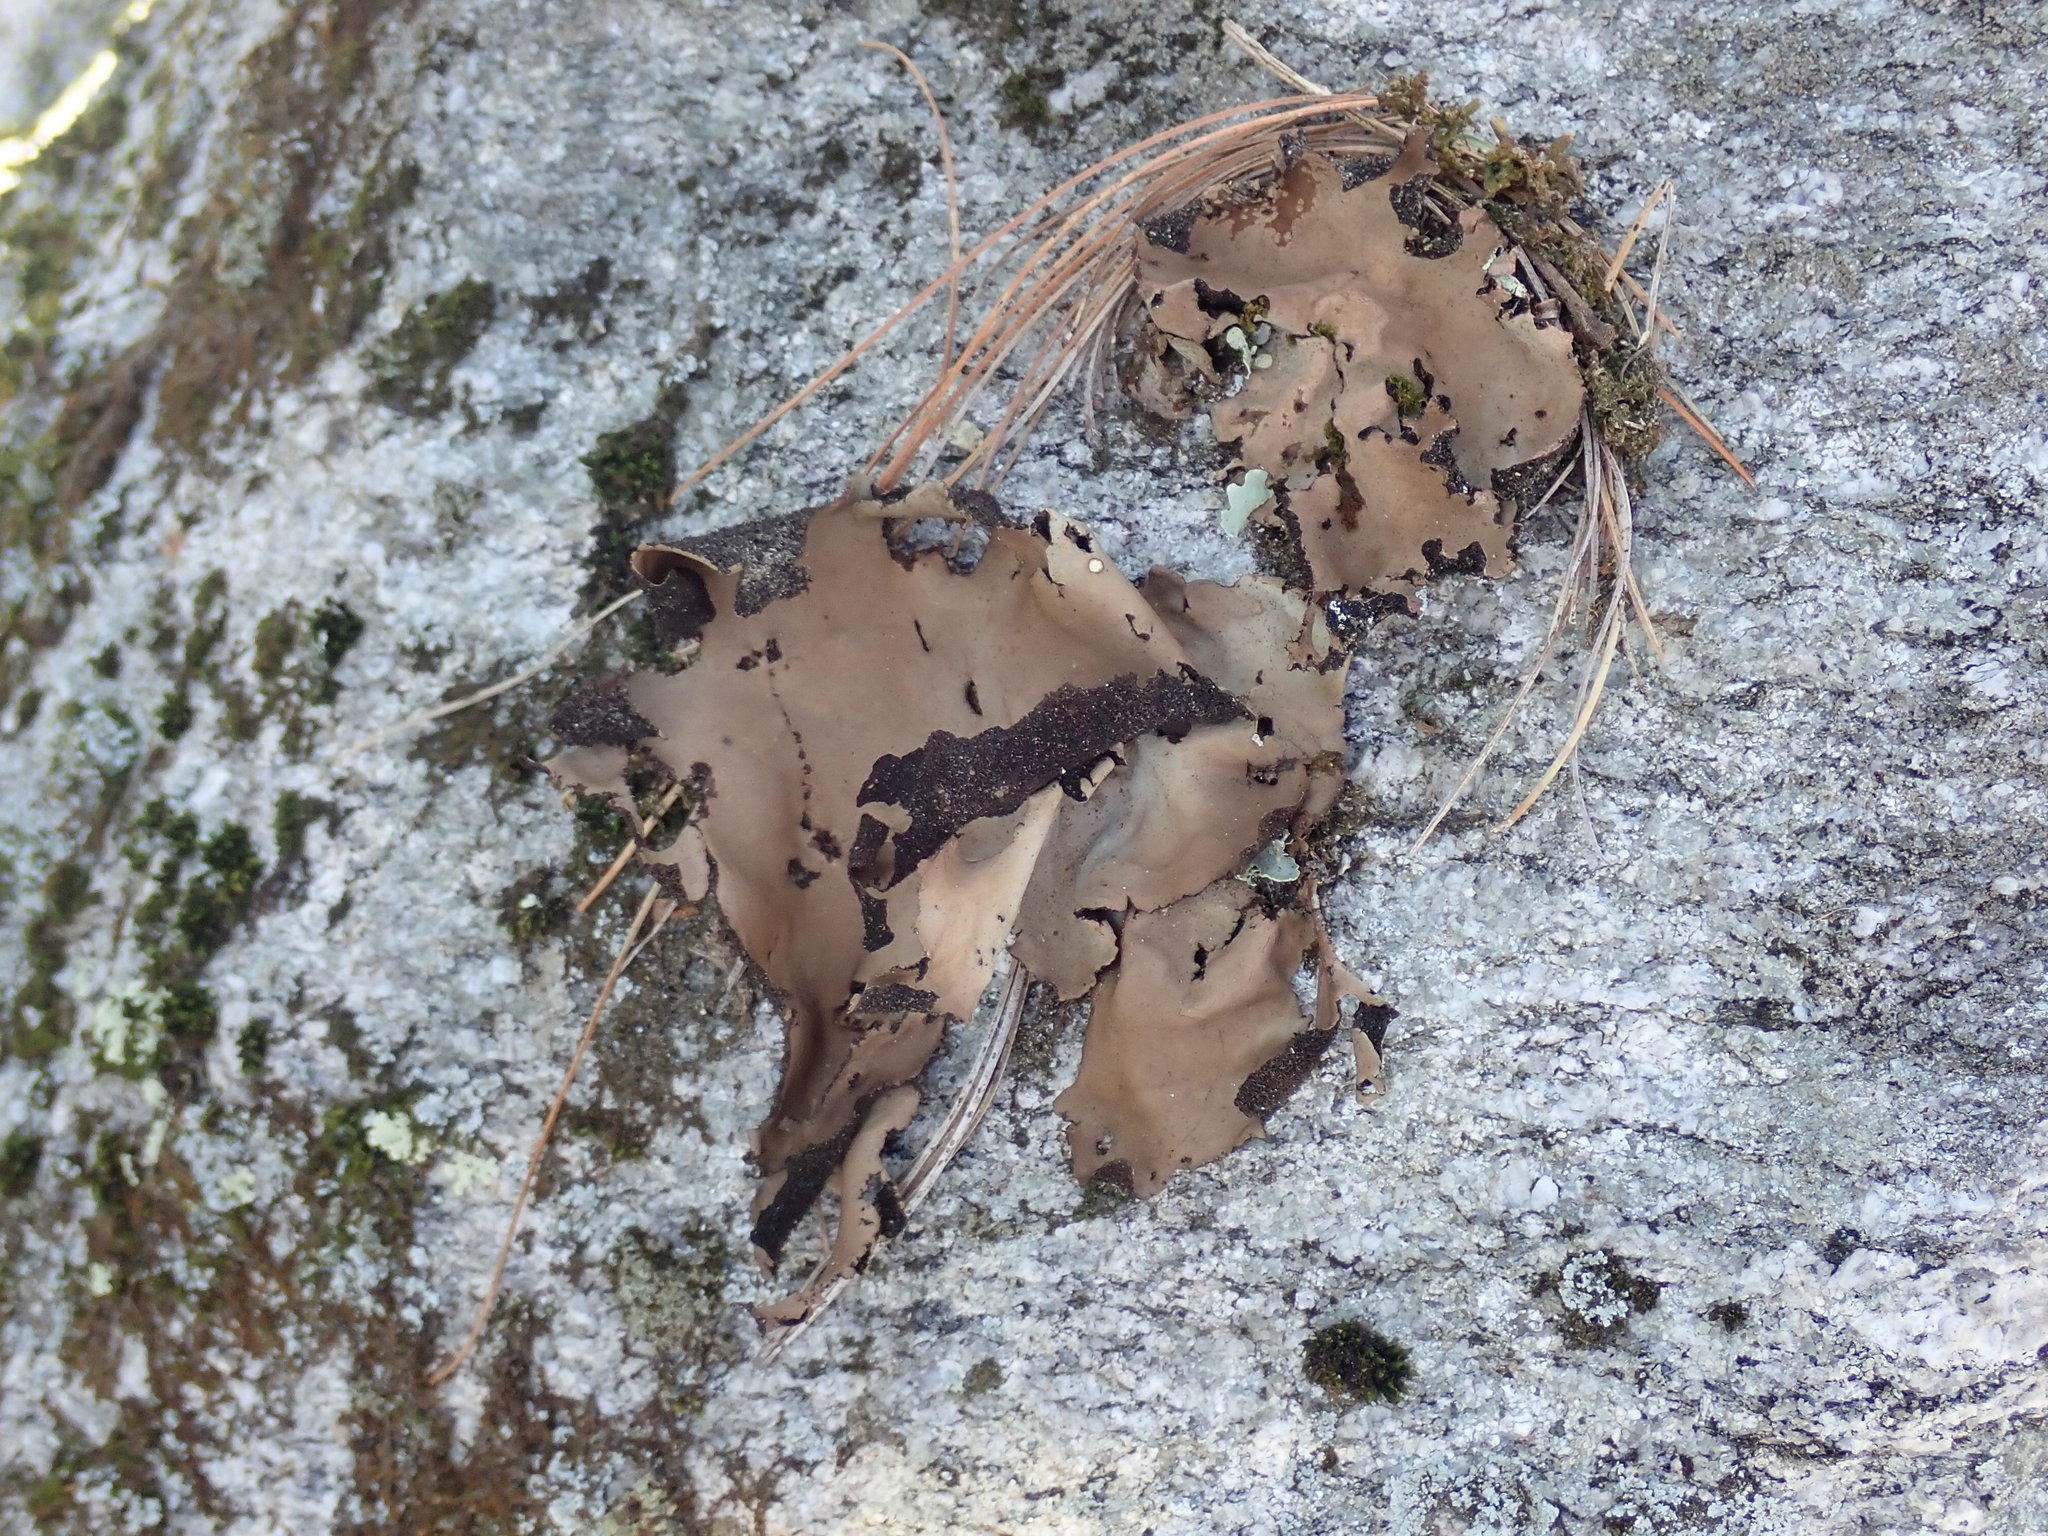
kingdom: Fungi
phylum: Ascomycota
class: Lecanoromycetes
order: Umbilicariales
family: Umbilicariaceae
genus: Umbilicaria
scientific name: Umbilicaria mammulata
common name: Smooth rock tripe
